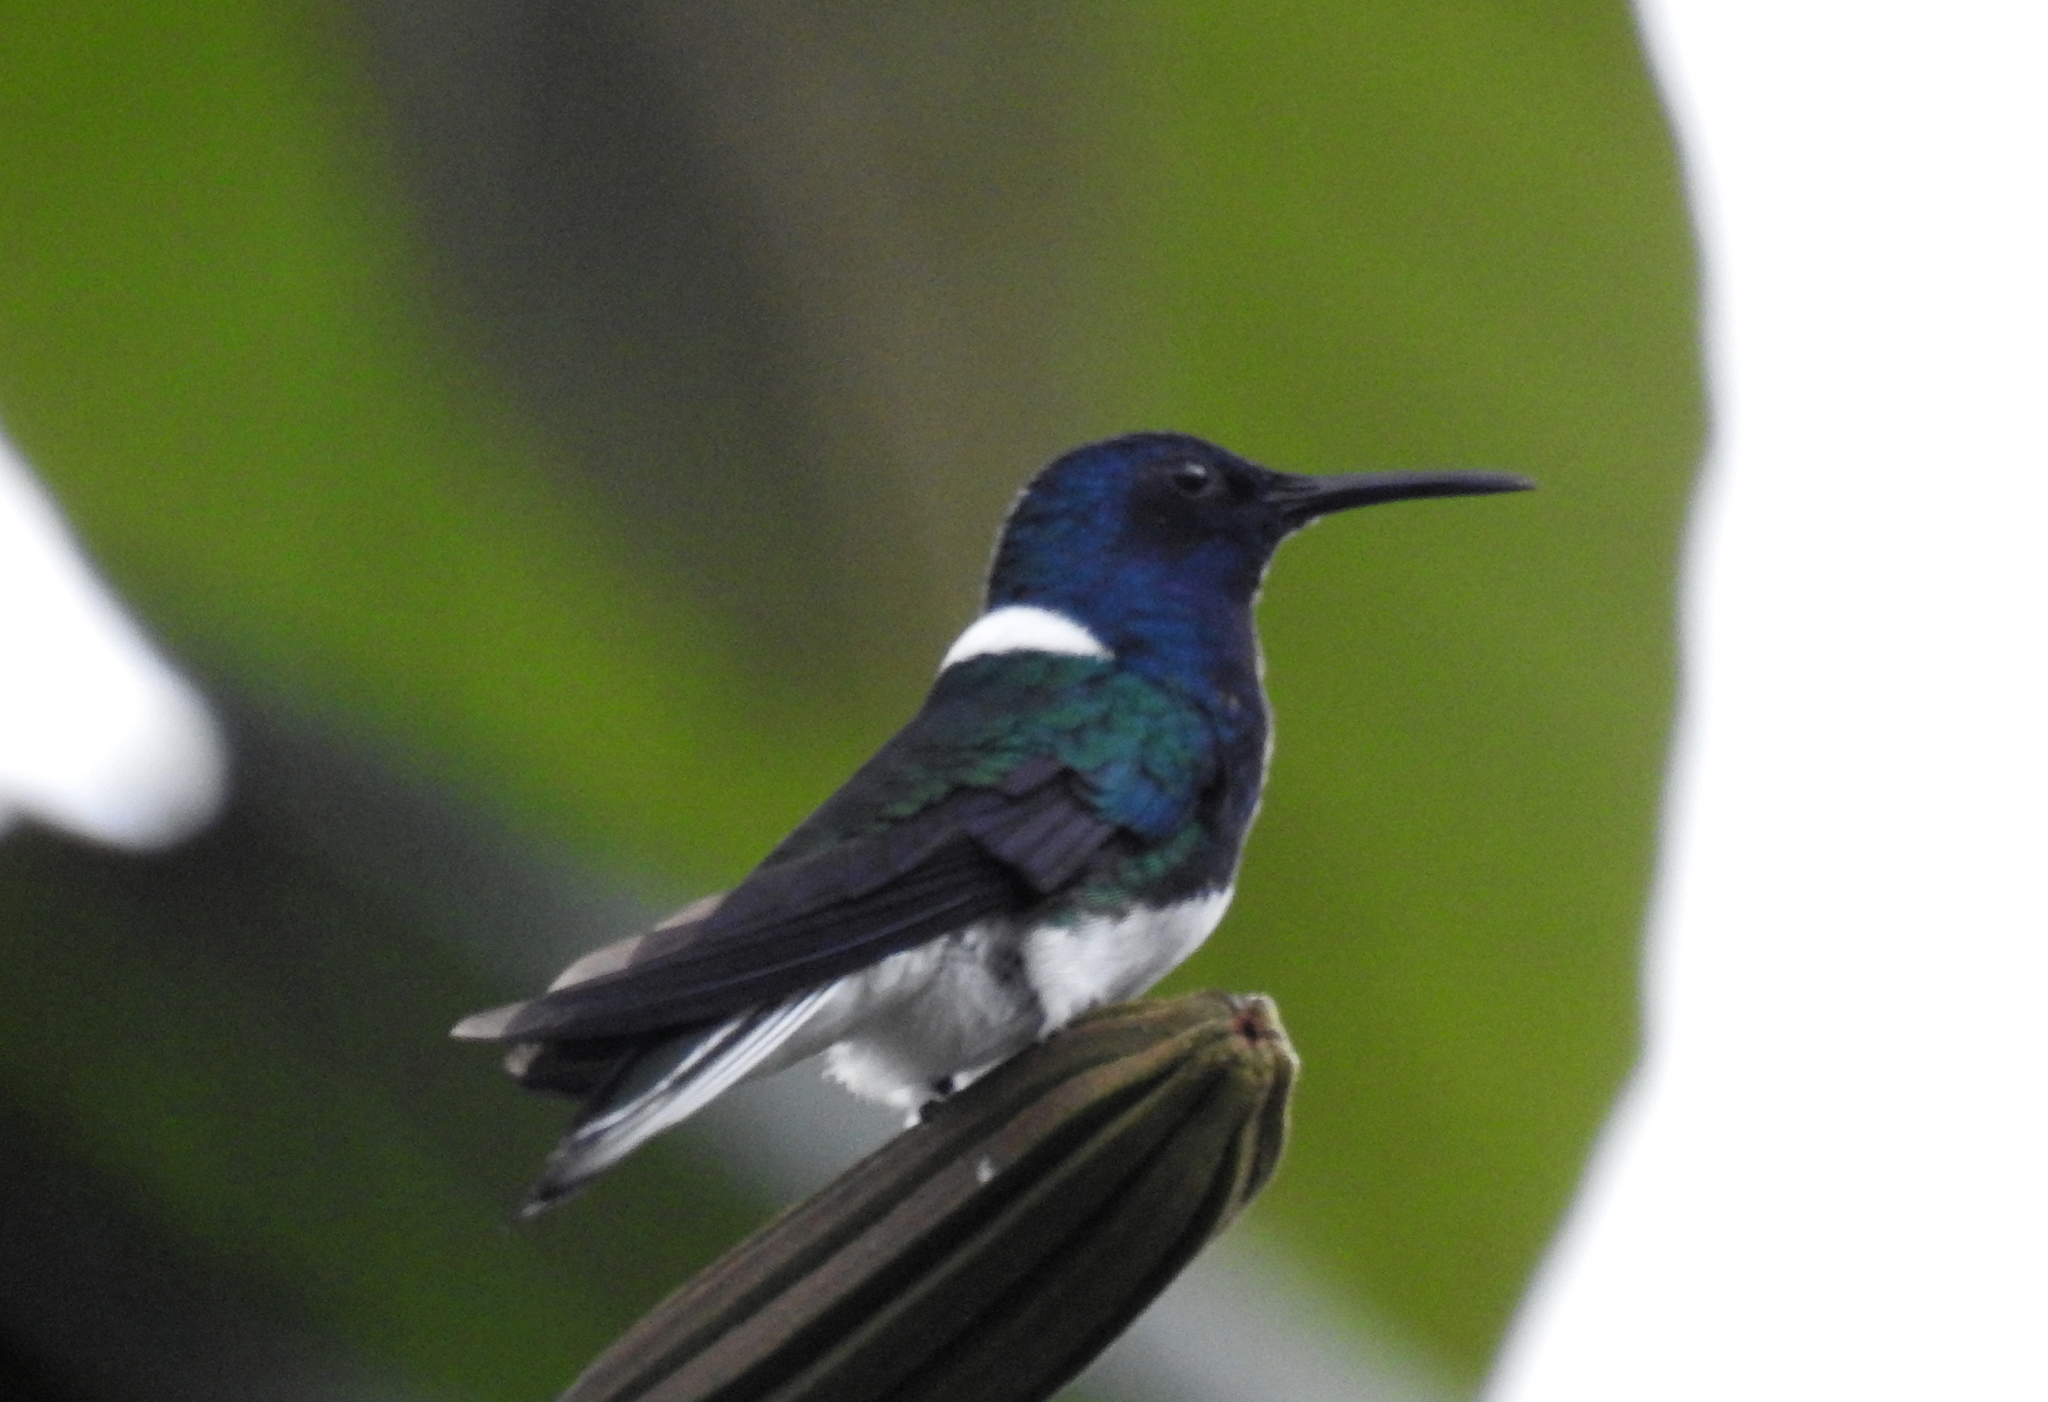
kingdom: Animalia
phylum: Chordata
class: Aves
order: Apodiformes
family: Trochilidae
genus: Florisuga
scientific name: Florisuga mellivora
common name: White-necked jacobin
